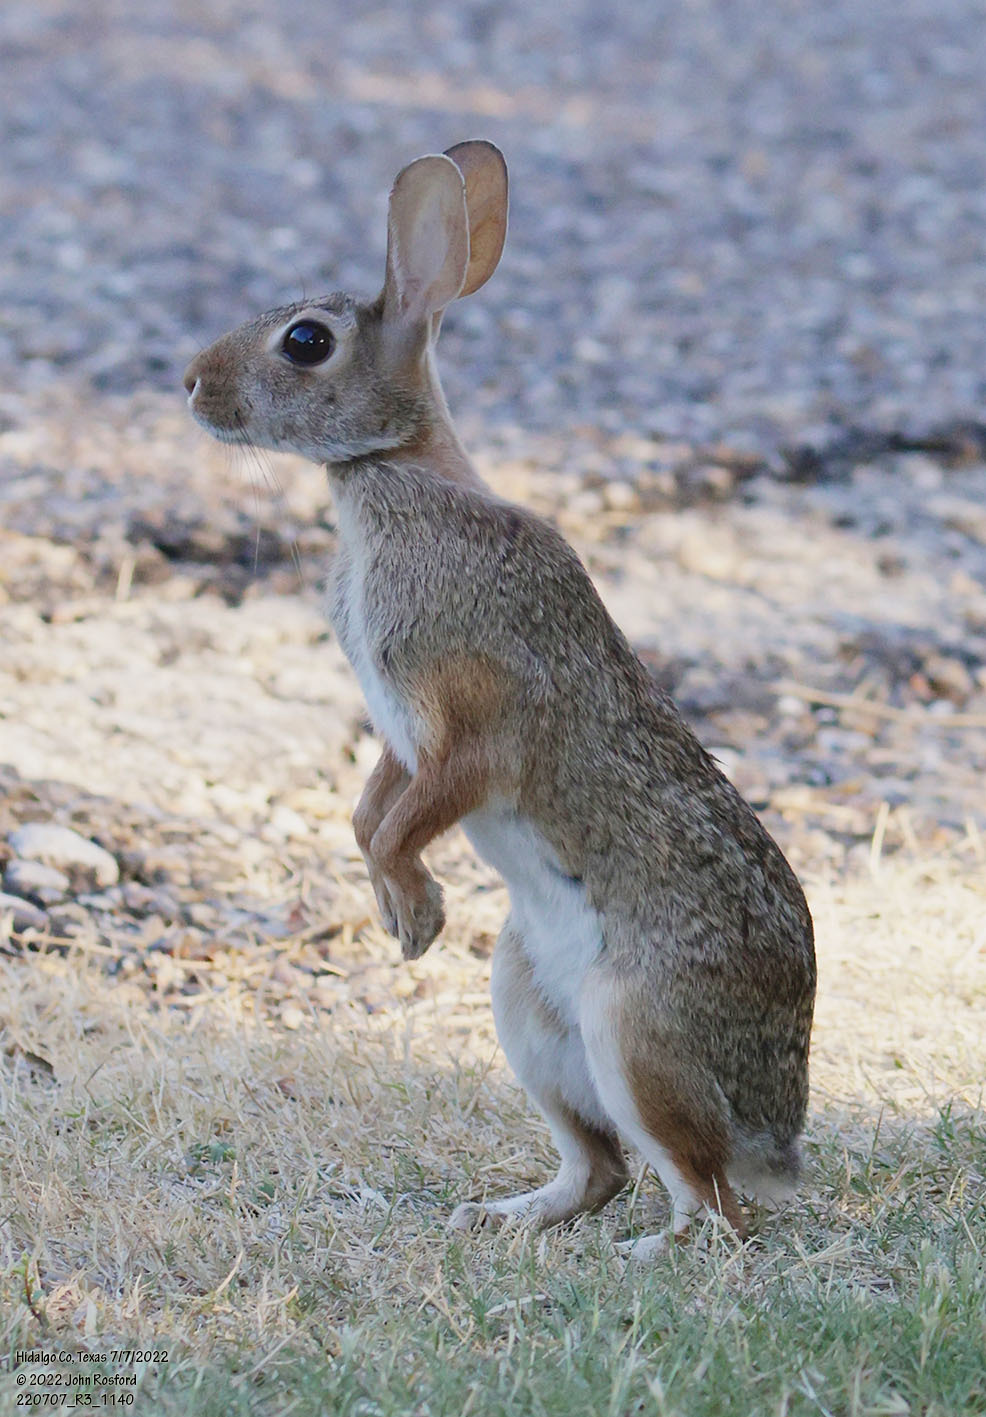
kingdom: Animalia
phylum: Chordata
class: Mammalia
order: Lagomorpha
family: Leporidae
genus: Sylvilagus
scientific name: Sylvilagus floridanus
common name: Eastern cottontail
